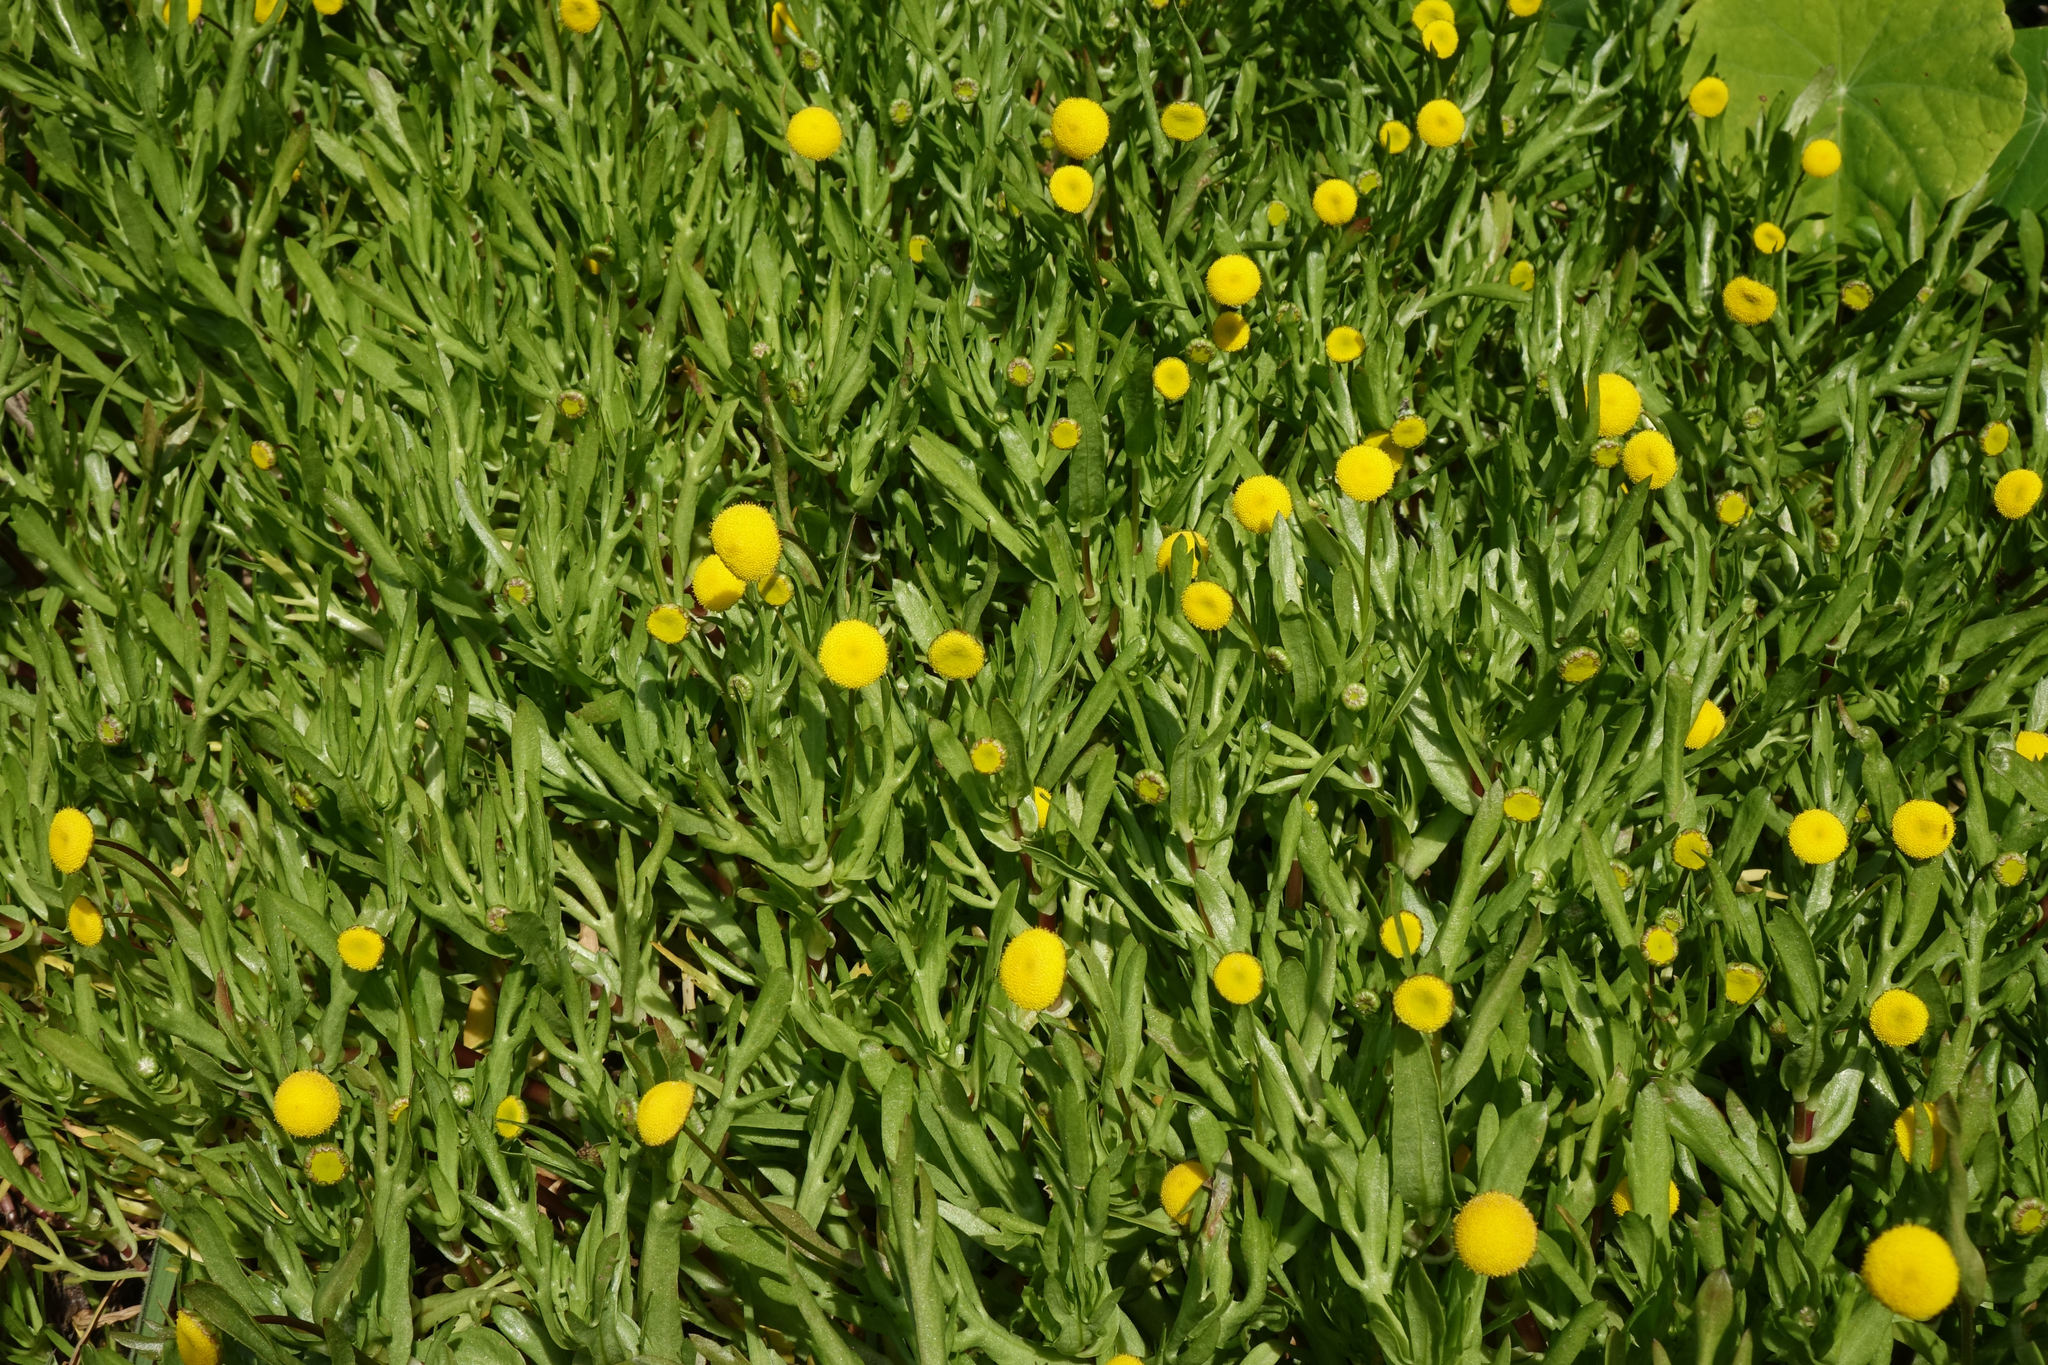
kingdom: Plantae
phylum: Tracheophyta
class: Magnoliopsida
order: Asterales
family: Asteraceae
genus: Cotula
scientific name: Cotula coronopifolia
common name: Buttonweed
